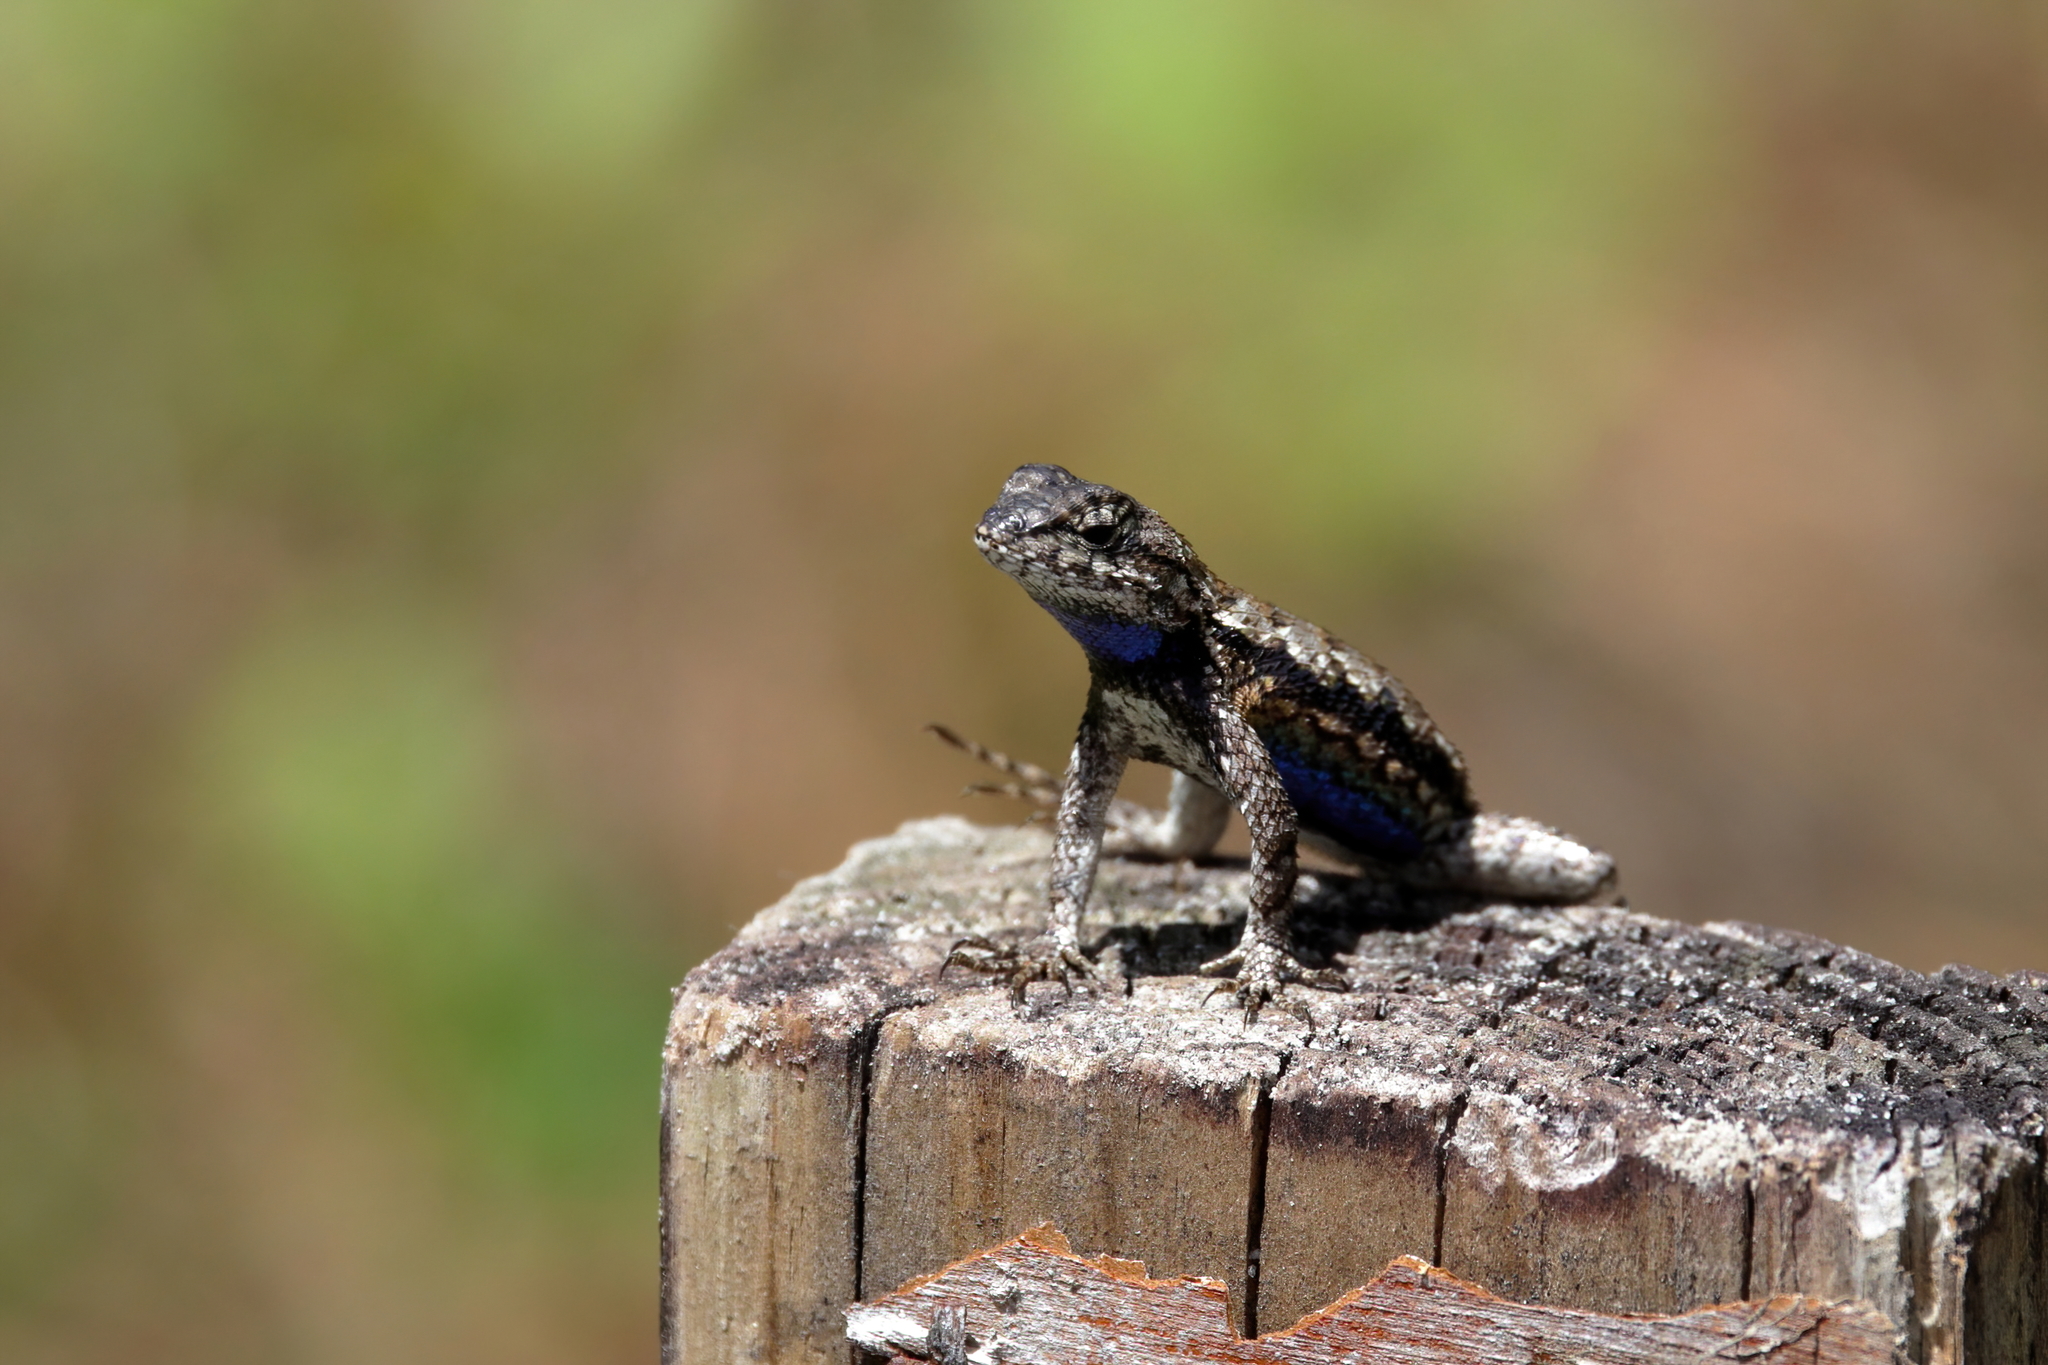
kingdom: Animalia
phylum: Chordata
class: Squamata
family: Phrynosomatidae
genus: Sceloporus
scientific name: Sceloporus undulatus
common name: Eastern fence lizard
